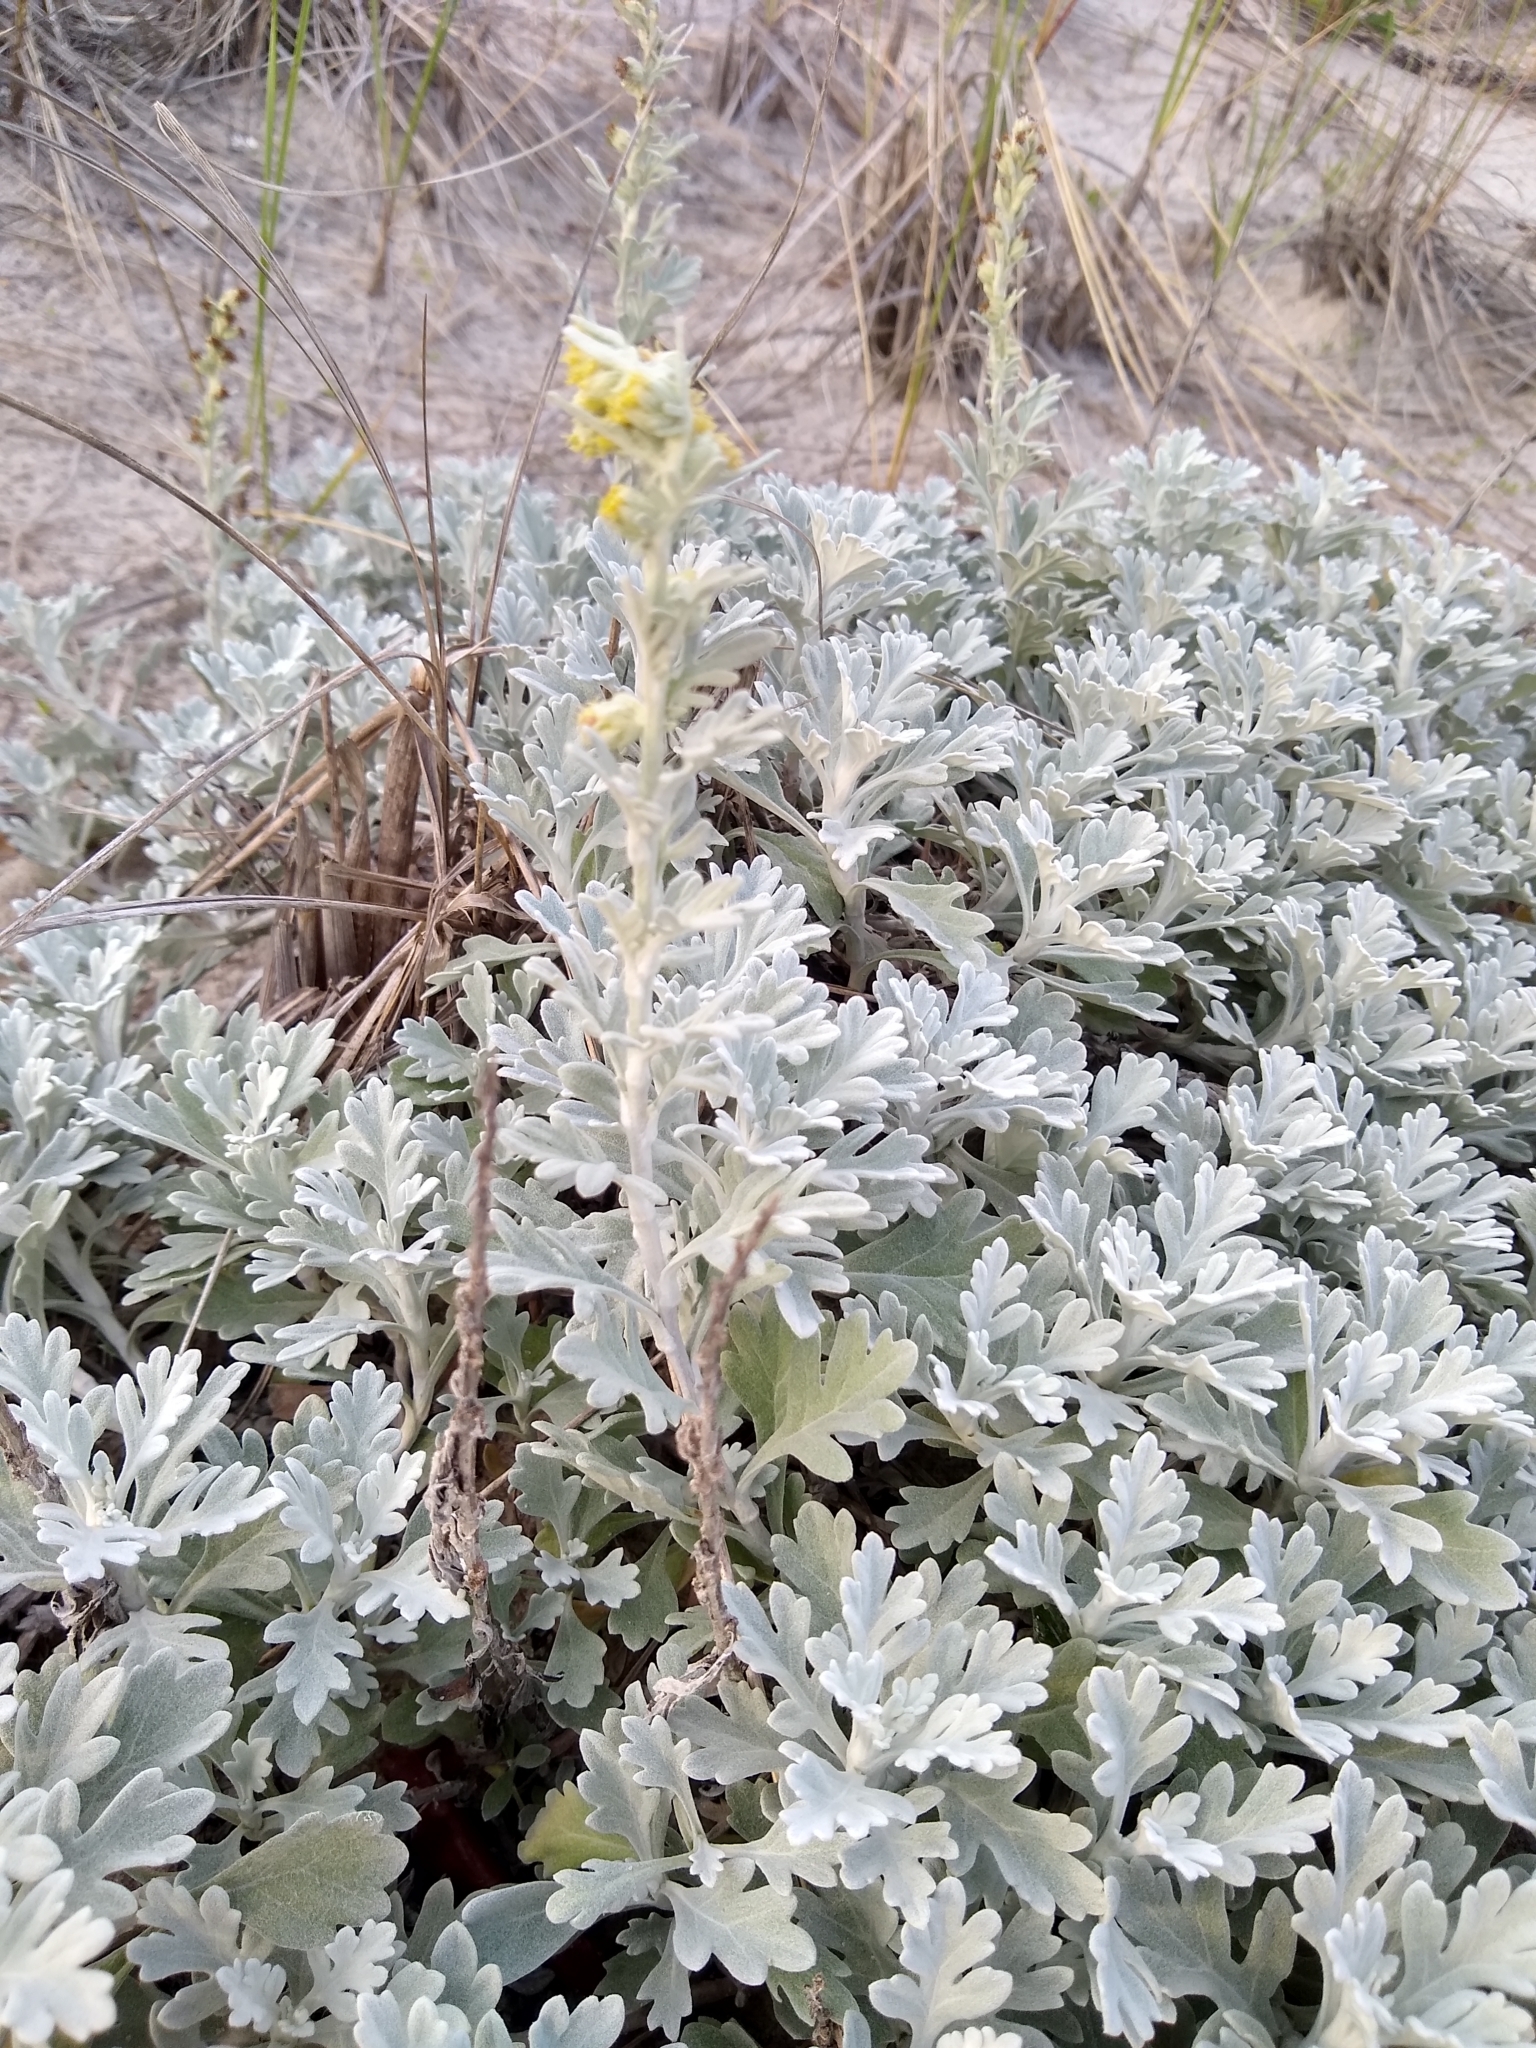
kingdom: Plantae
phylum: Tracheophyta
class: Magnoliopsida
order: Asterales
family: Asteraceae
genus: Artemisia
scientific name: Artemisia stelleriana
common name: Beach wormwood
